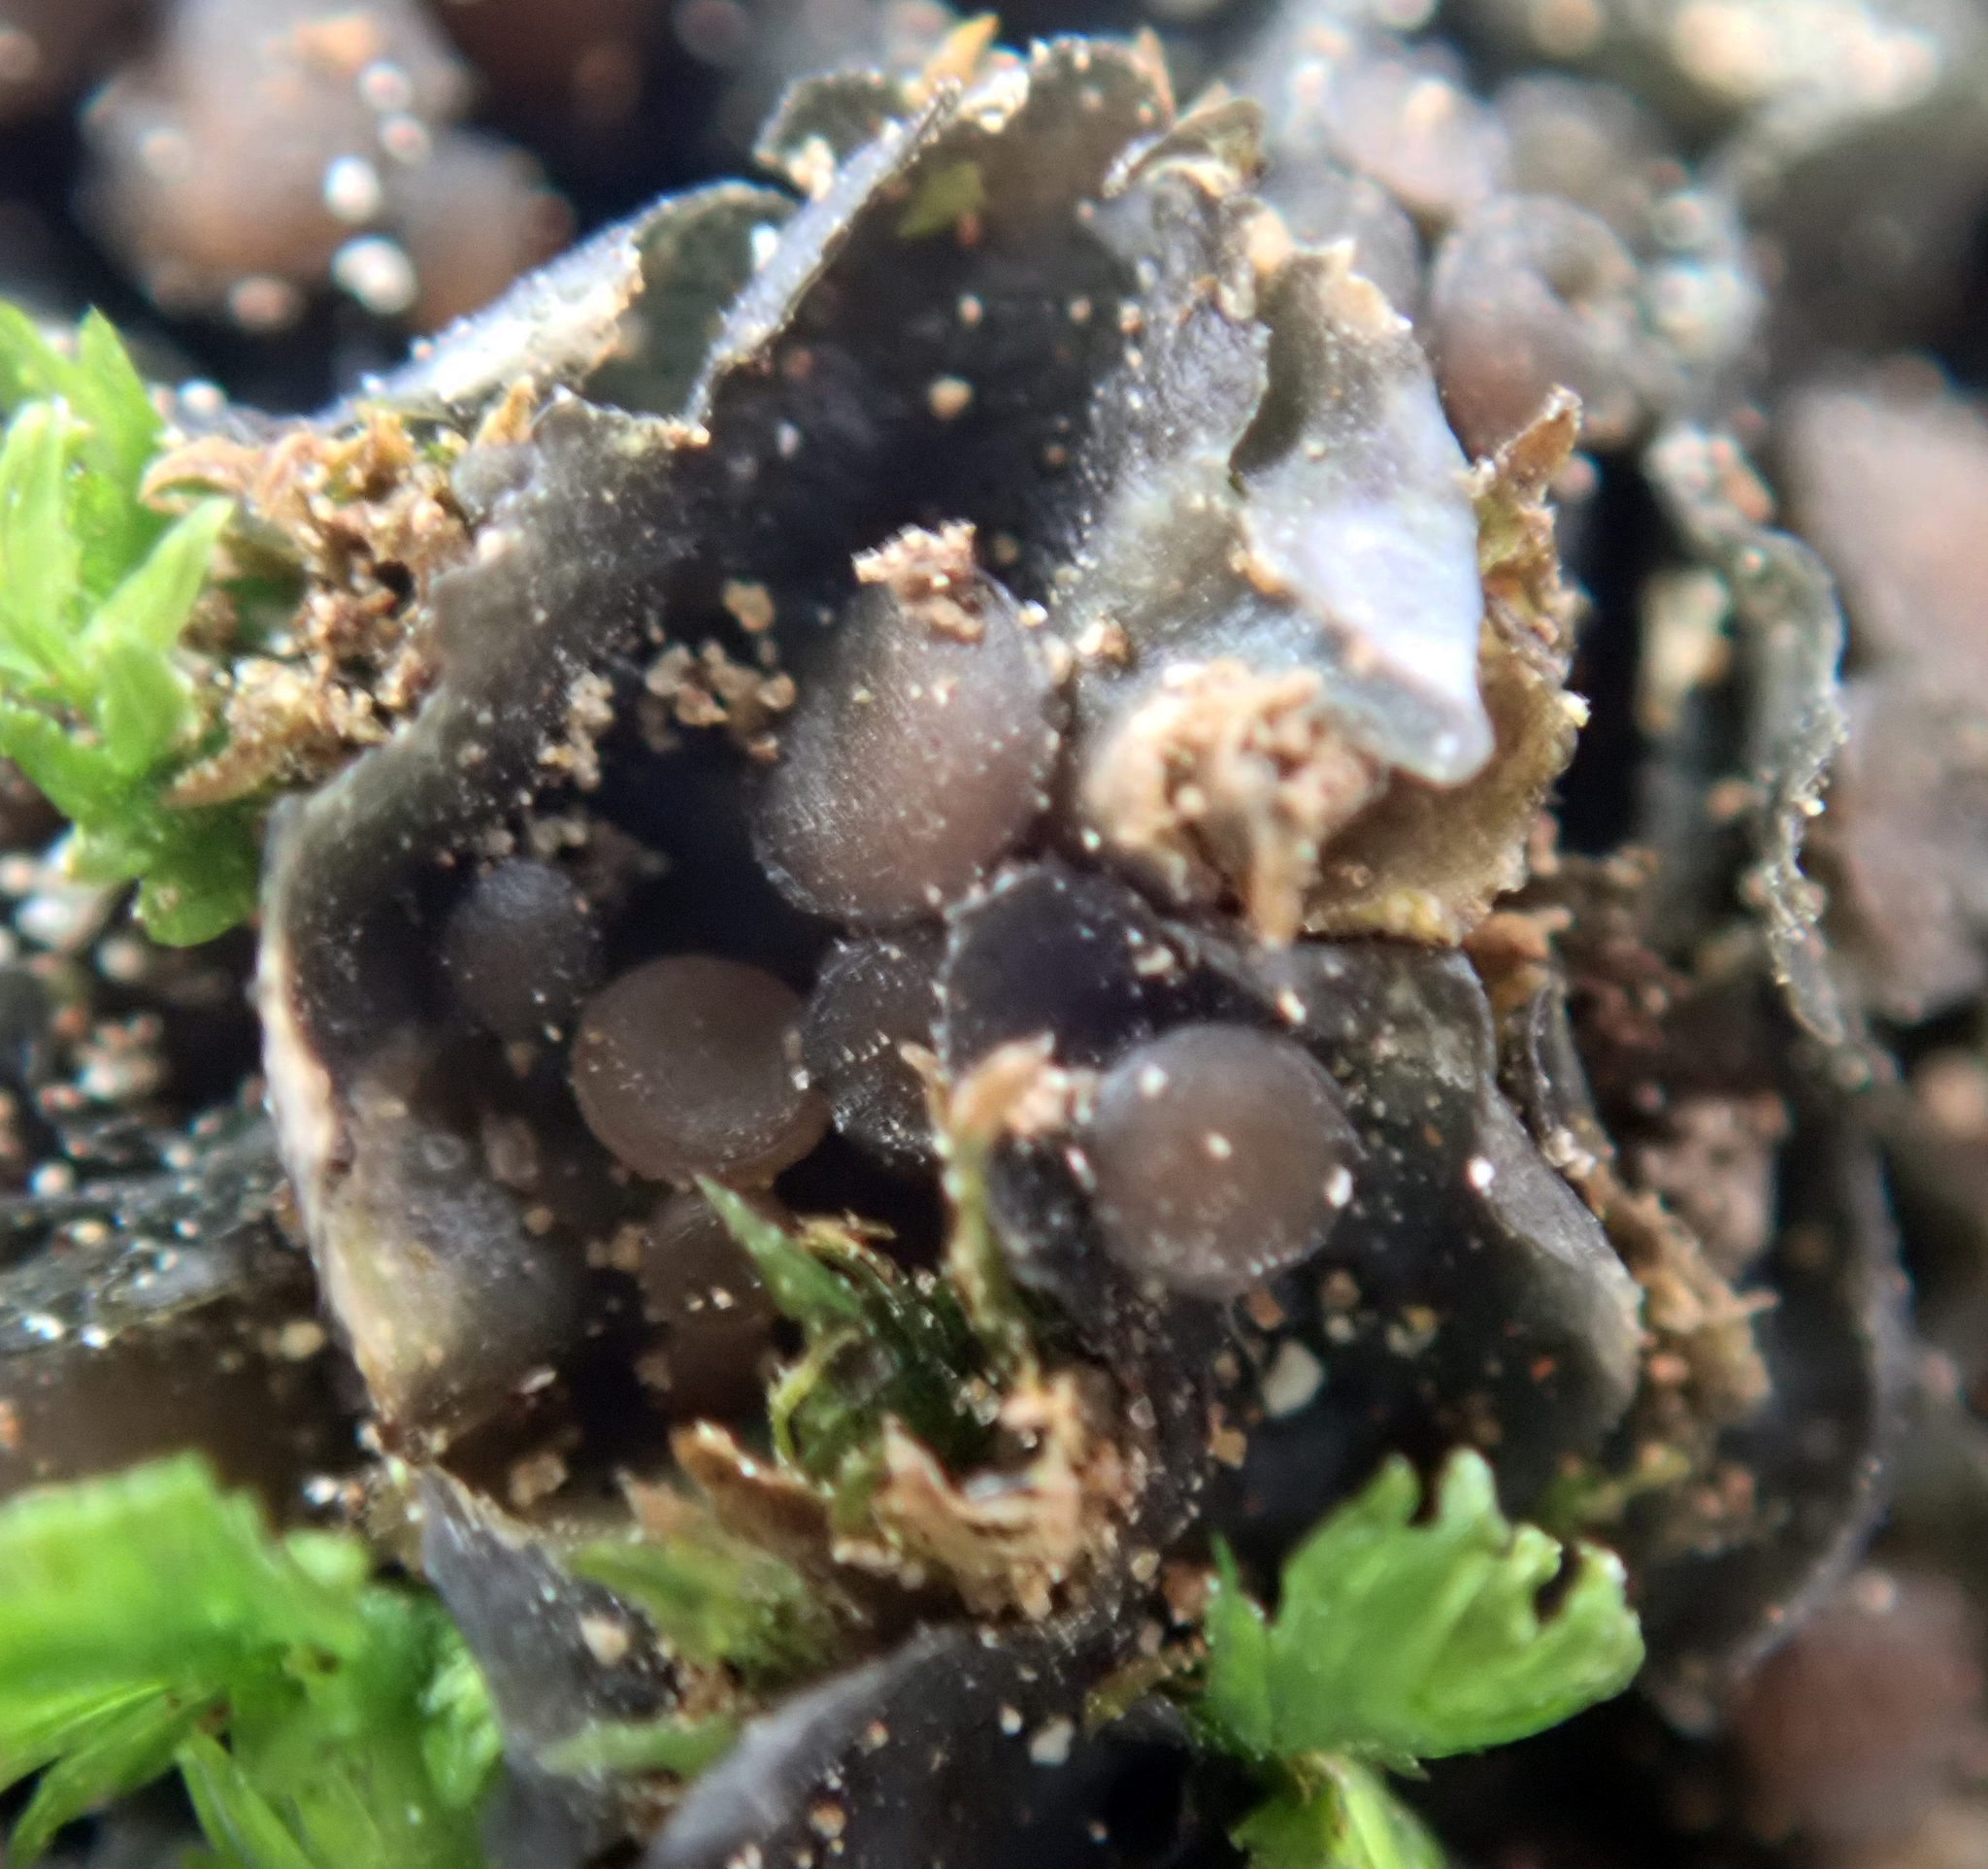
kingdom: Fungi
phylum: Ascomycota
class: Lecanoromycetes
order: Peltigerales
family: Collemataceae
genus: Leptogium
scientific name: Leptogium crispatellum
